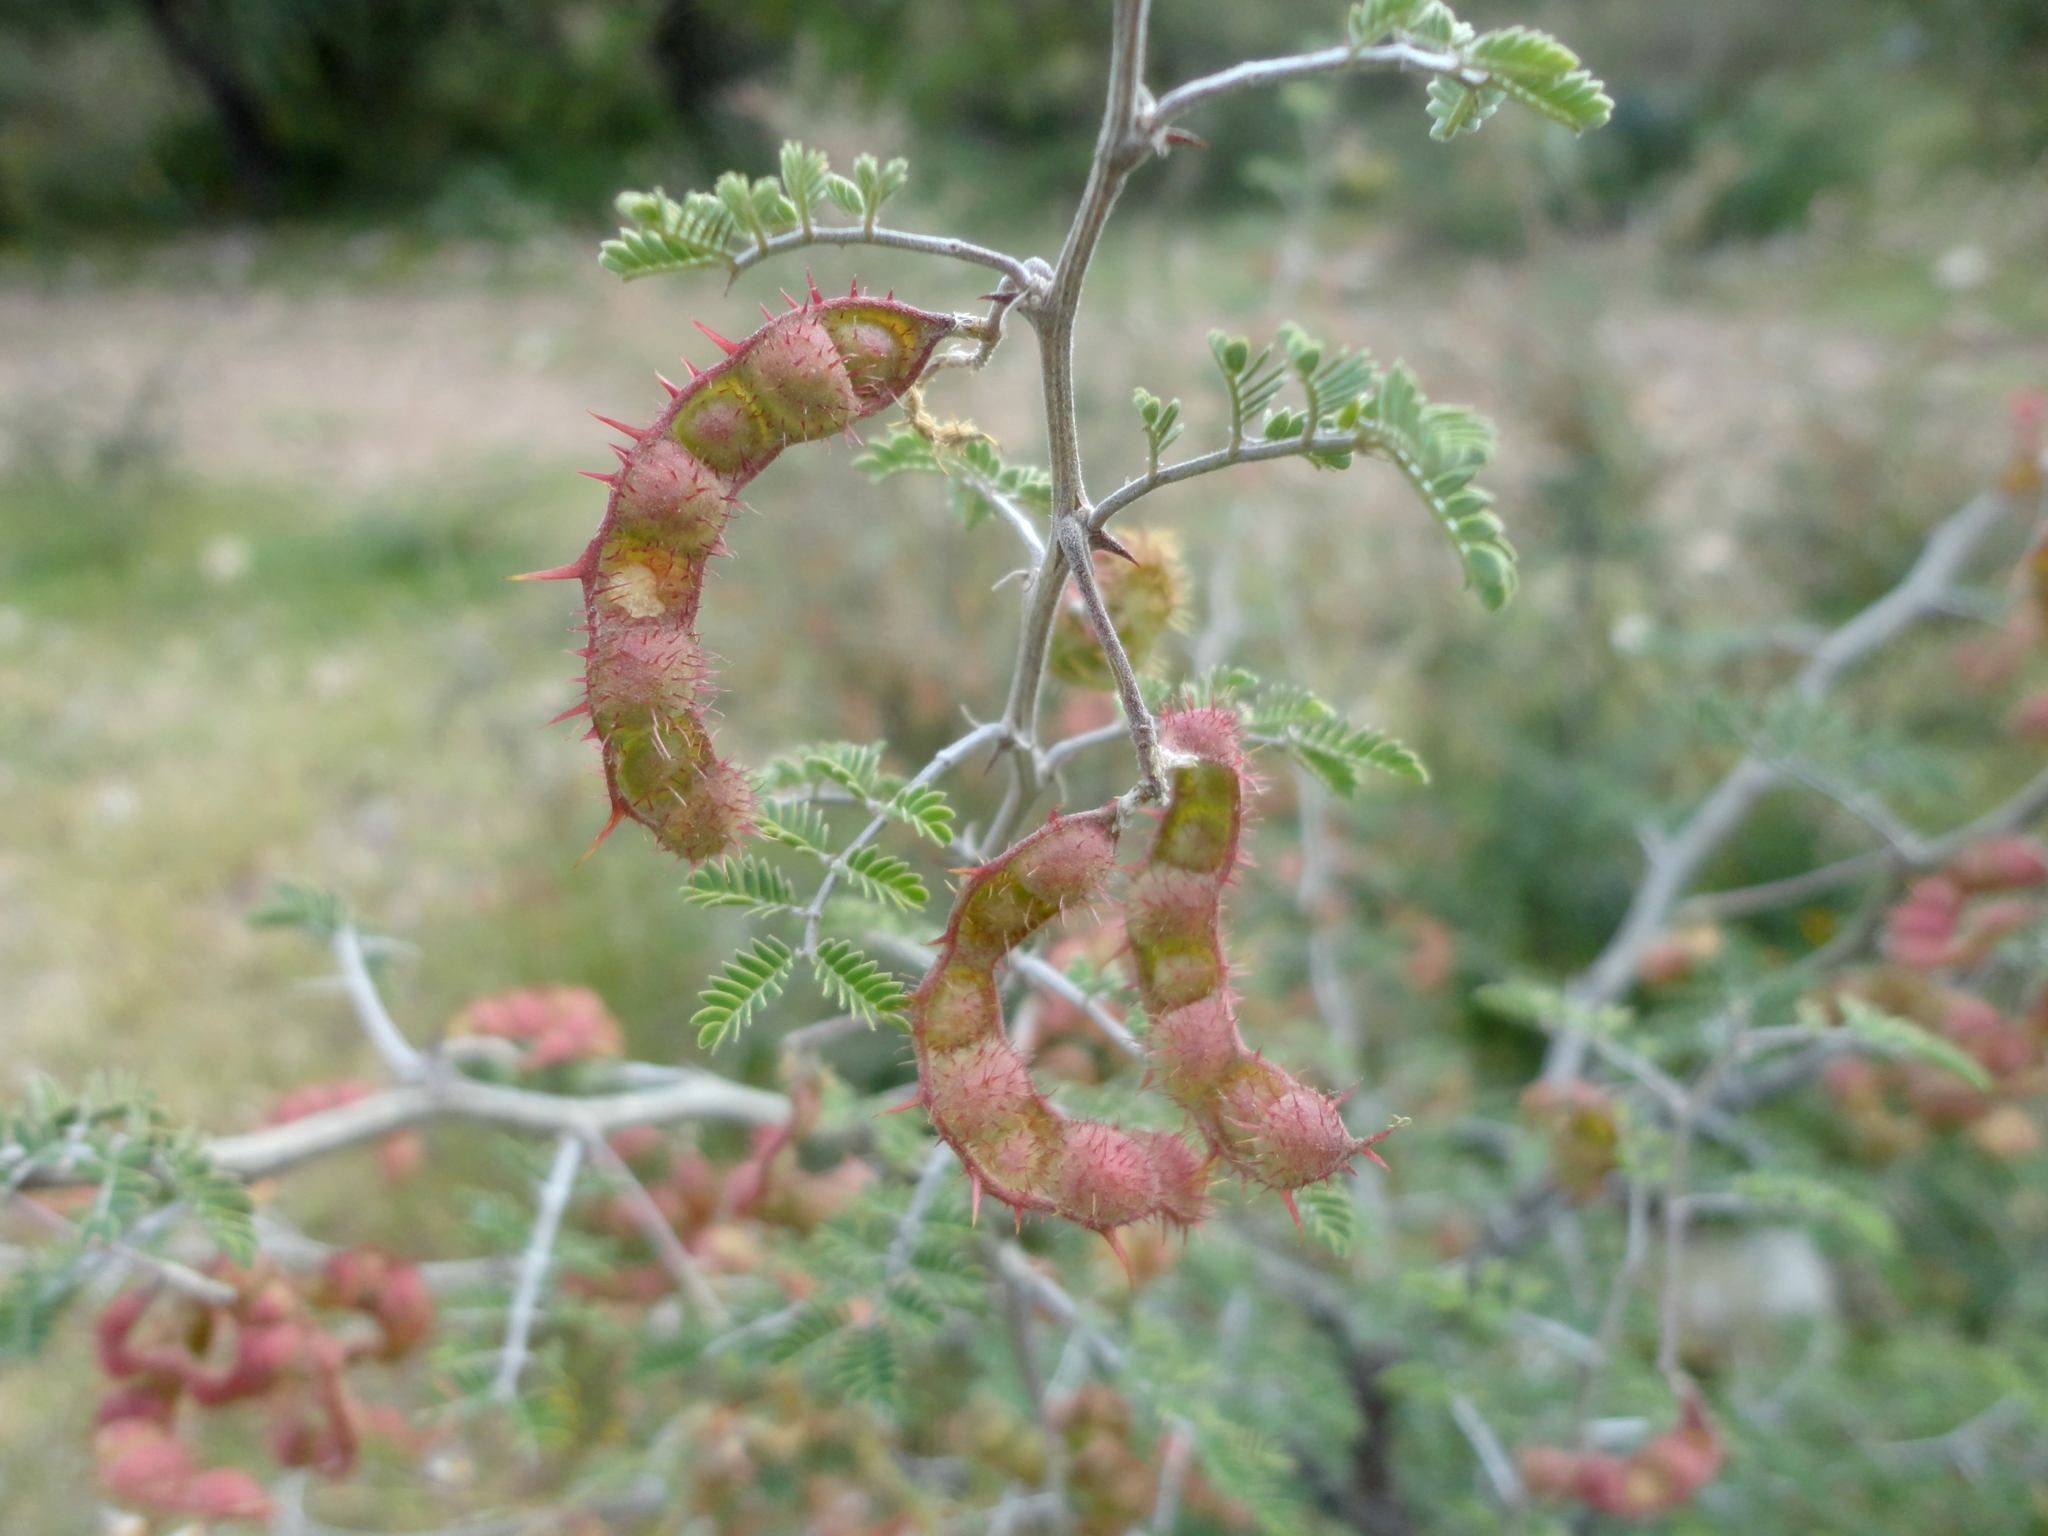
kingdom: Plantae
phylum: Tracheophyta
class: Magnoliopsida
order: Fabales
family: Fabaceae
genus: Mimosa
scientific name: Mimosa aculeaticarpa
